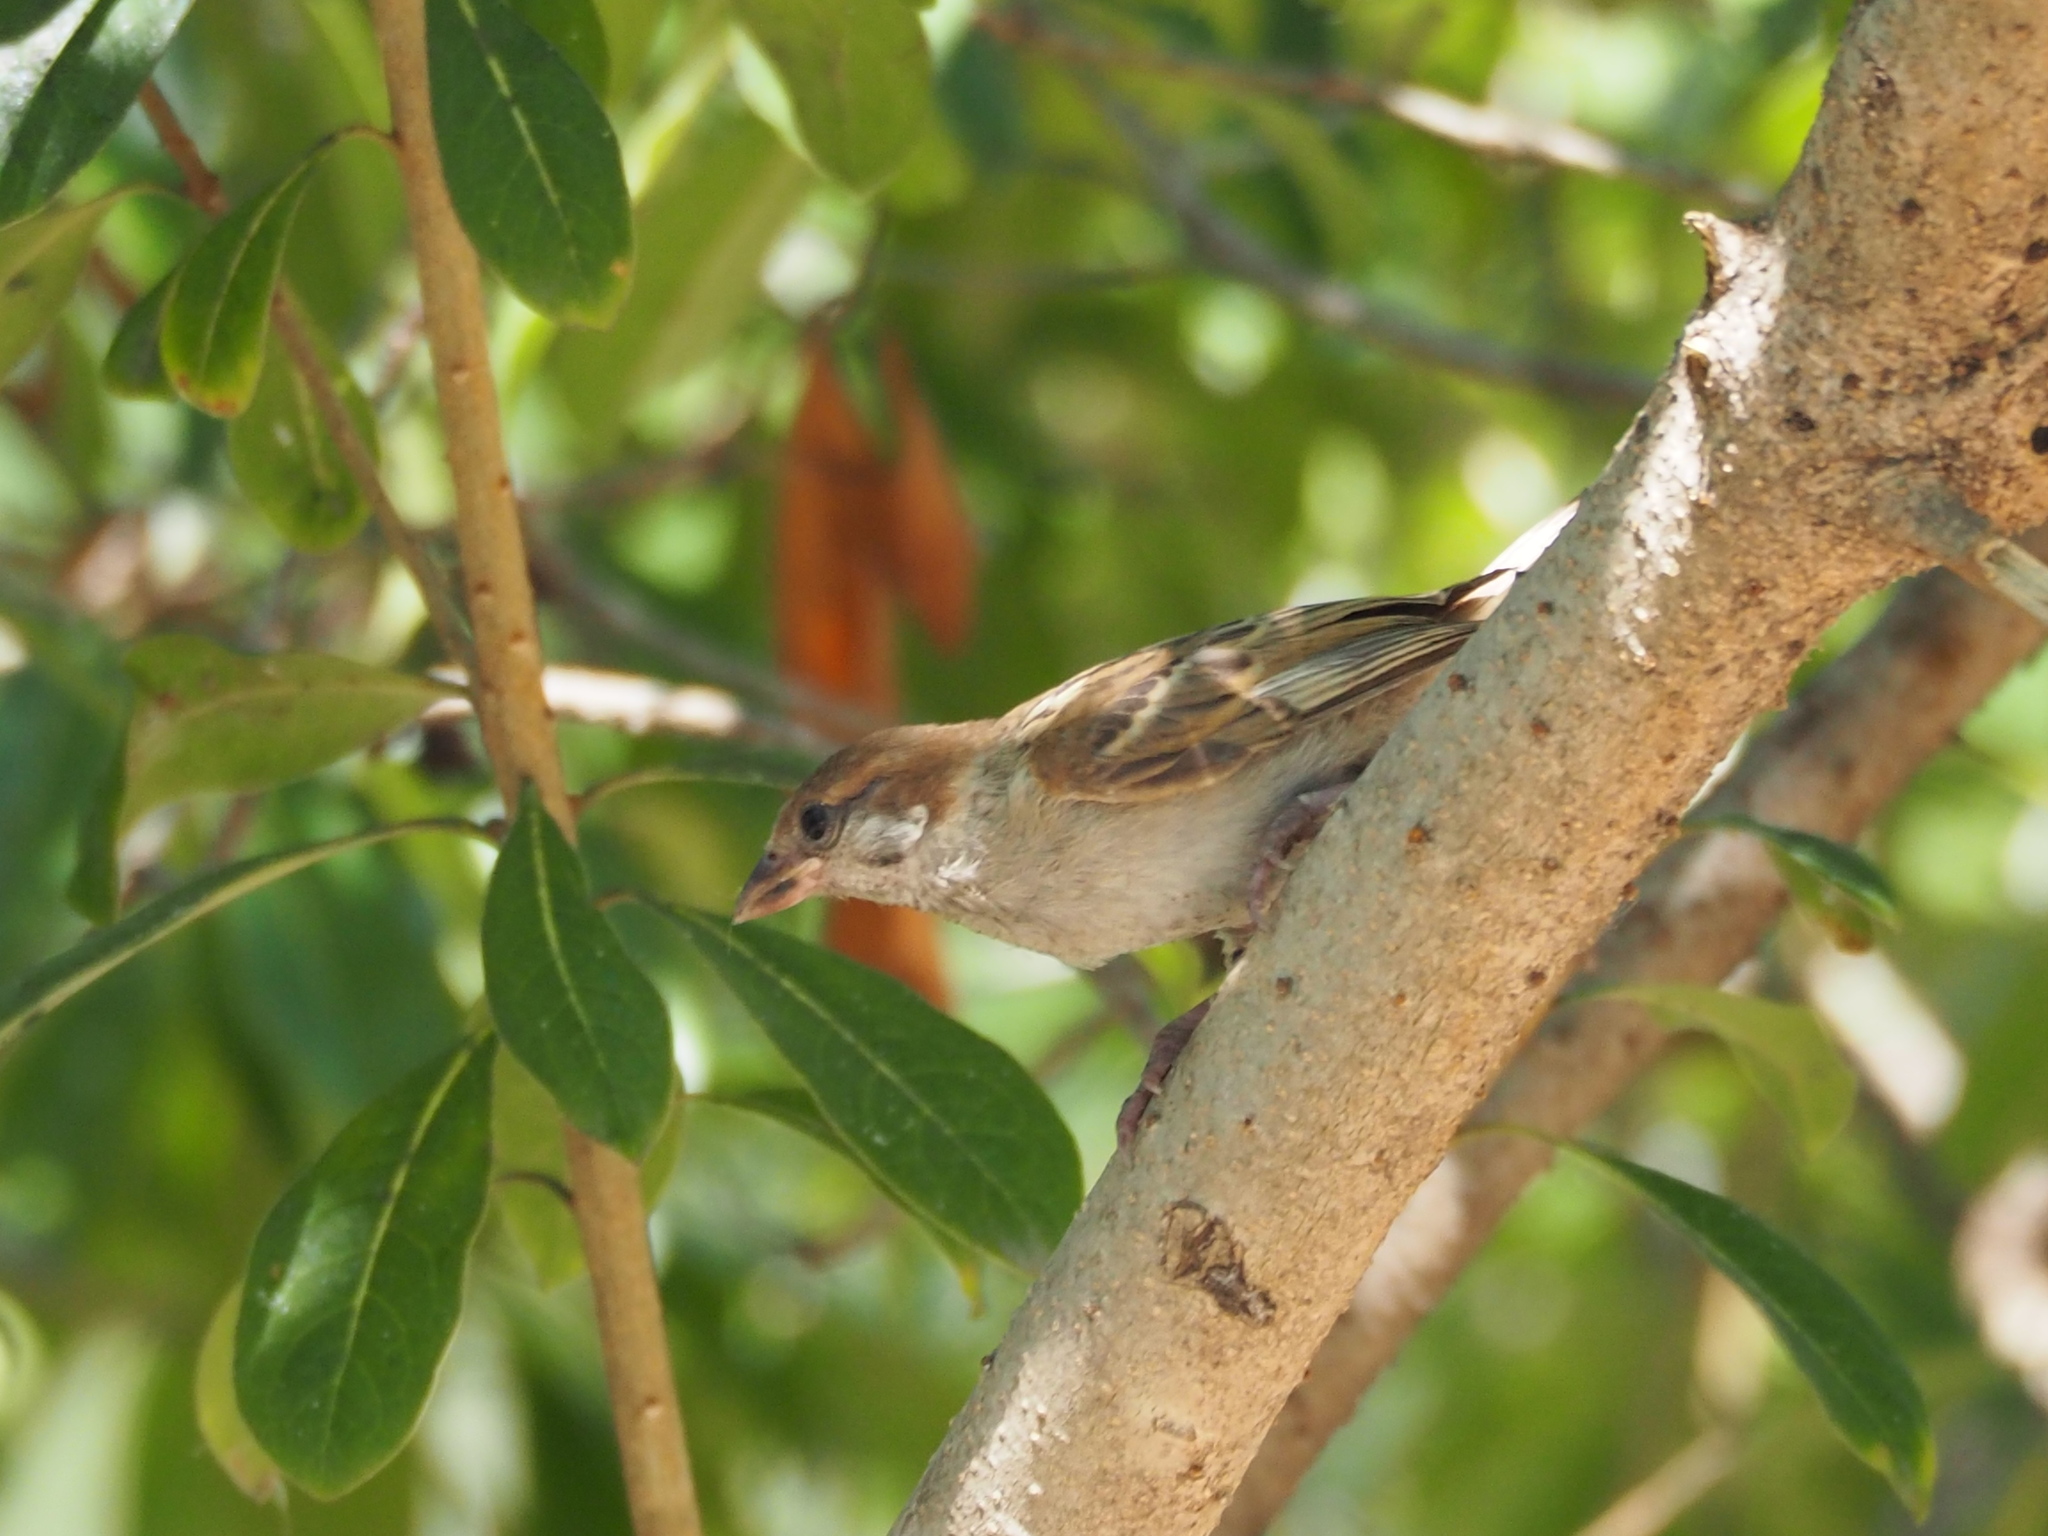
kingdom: Animalia
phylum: Chordata
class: Aves
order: Passeriformes
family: Passeridae
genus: Passer
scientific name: Passer montanus
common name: Eurasian tree sparrow
